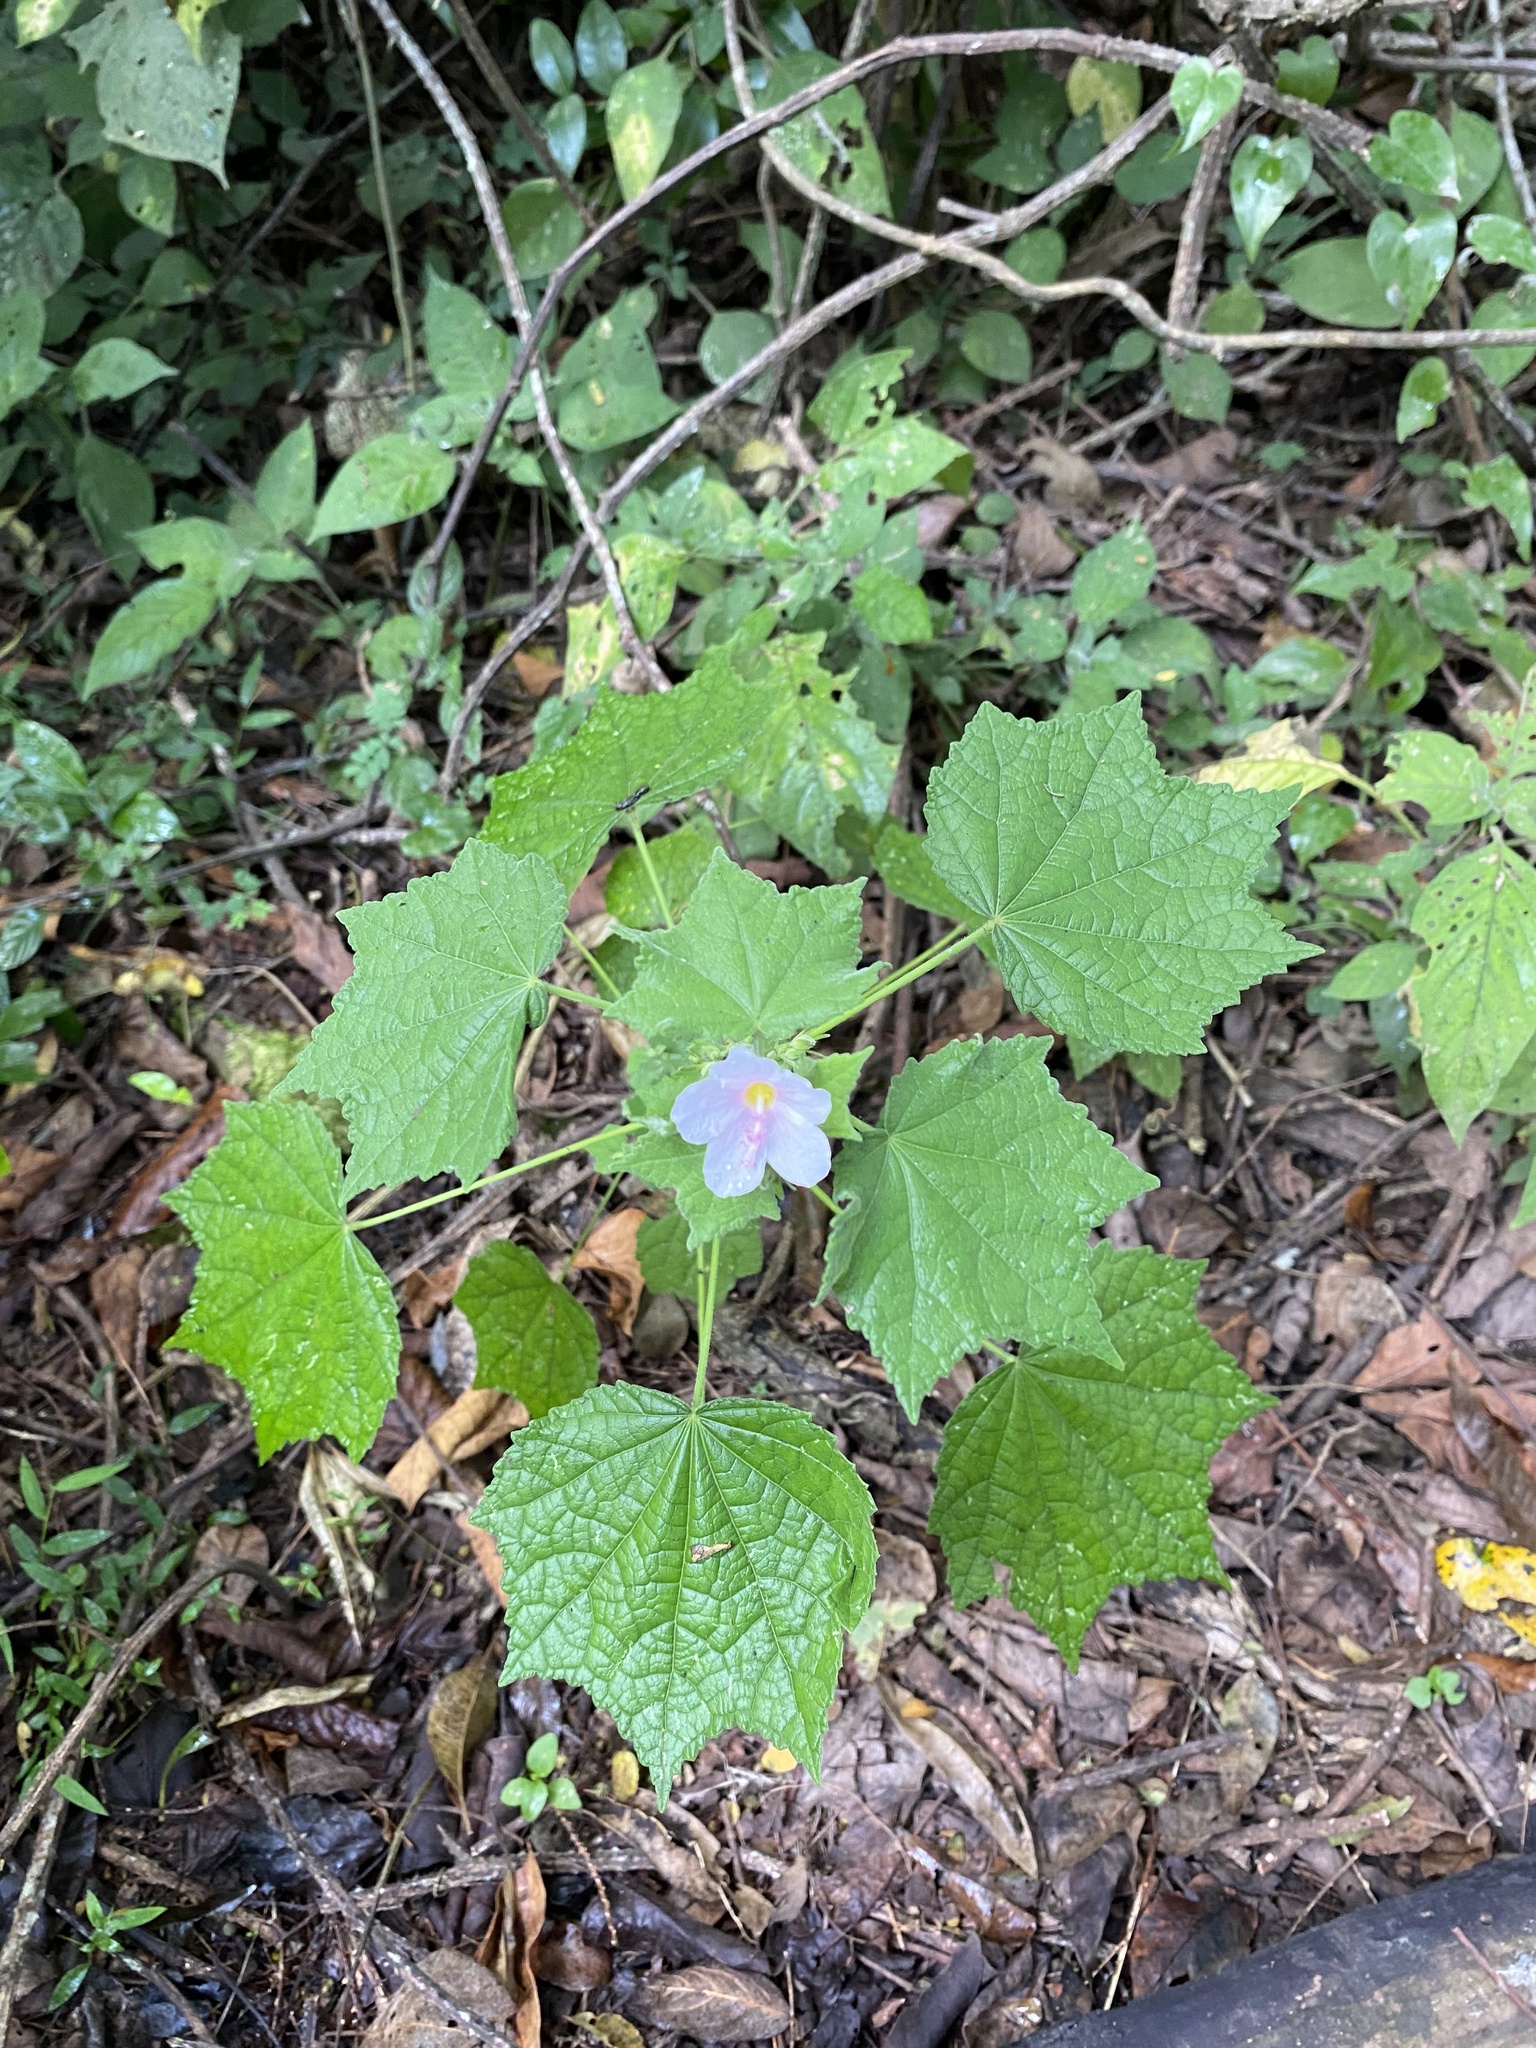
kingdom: Plantae
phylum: Tracheophyta
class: Magnoliopsida
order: Malvales
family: Malvaceae
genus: Pavonia
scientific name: Pavonia columella
